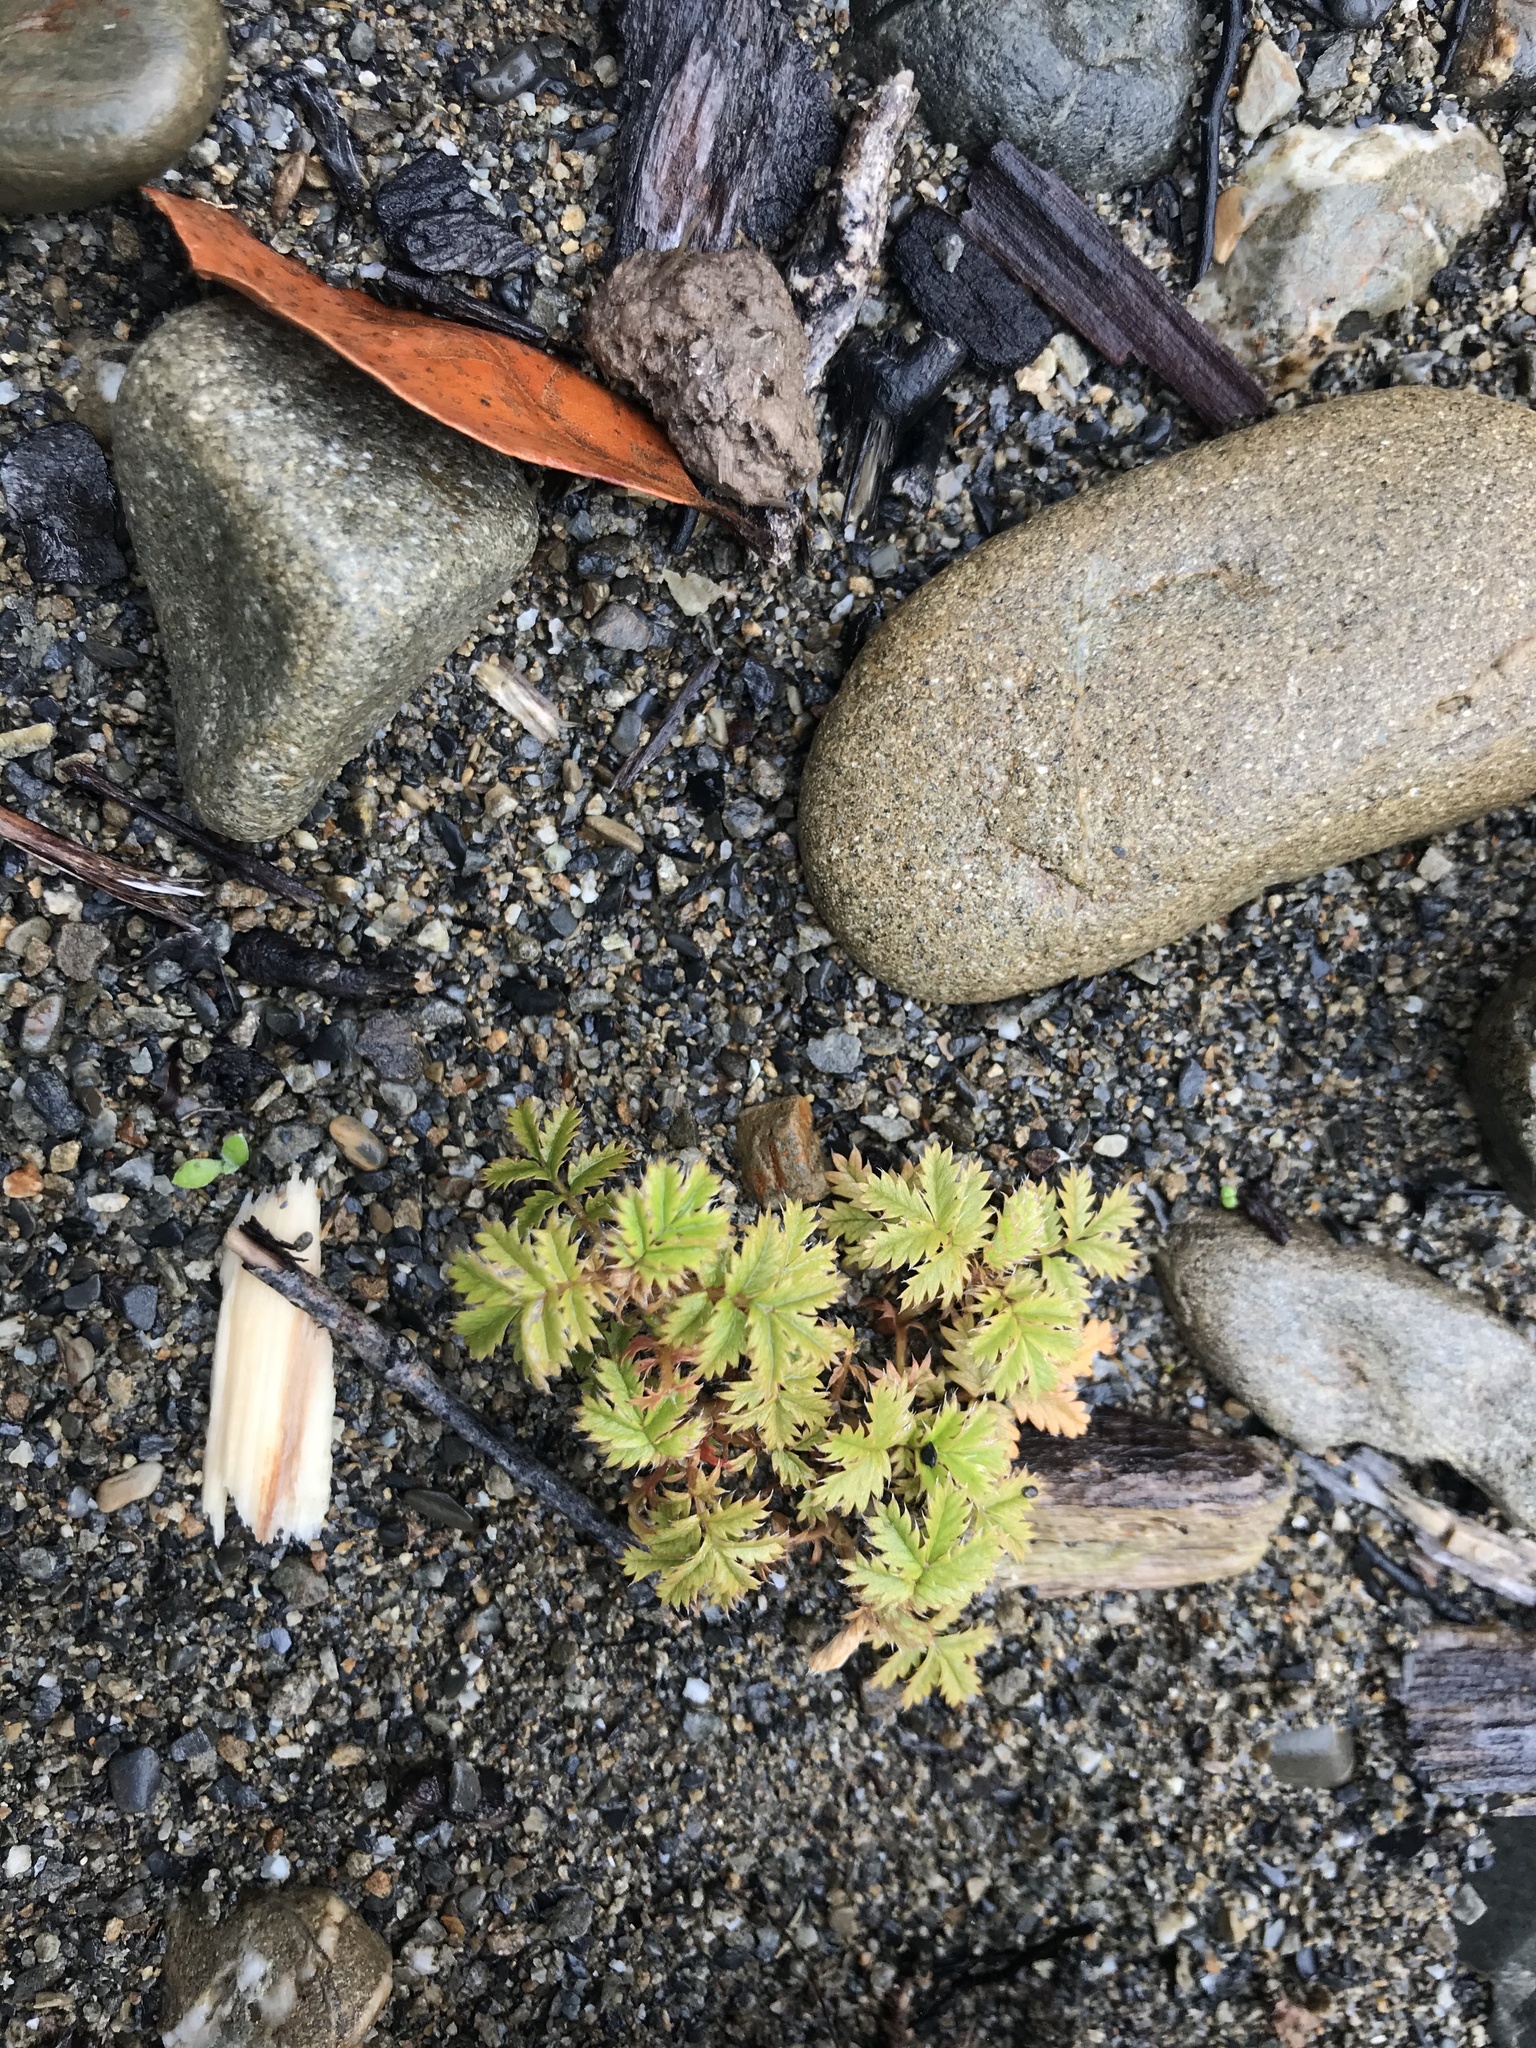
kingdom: Plantae
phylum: Tracheophyta
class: Magnoliopsida
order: Rosales
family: Rosaceae
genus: Acaena
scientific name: Acaena anserinifolia
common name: Bronze pirri-pirri-bur
